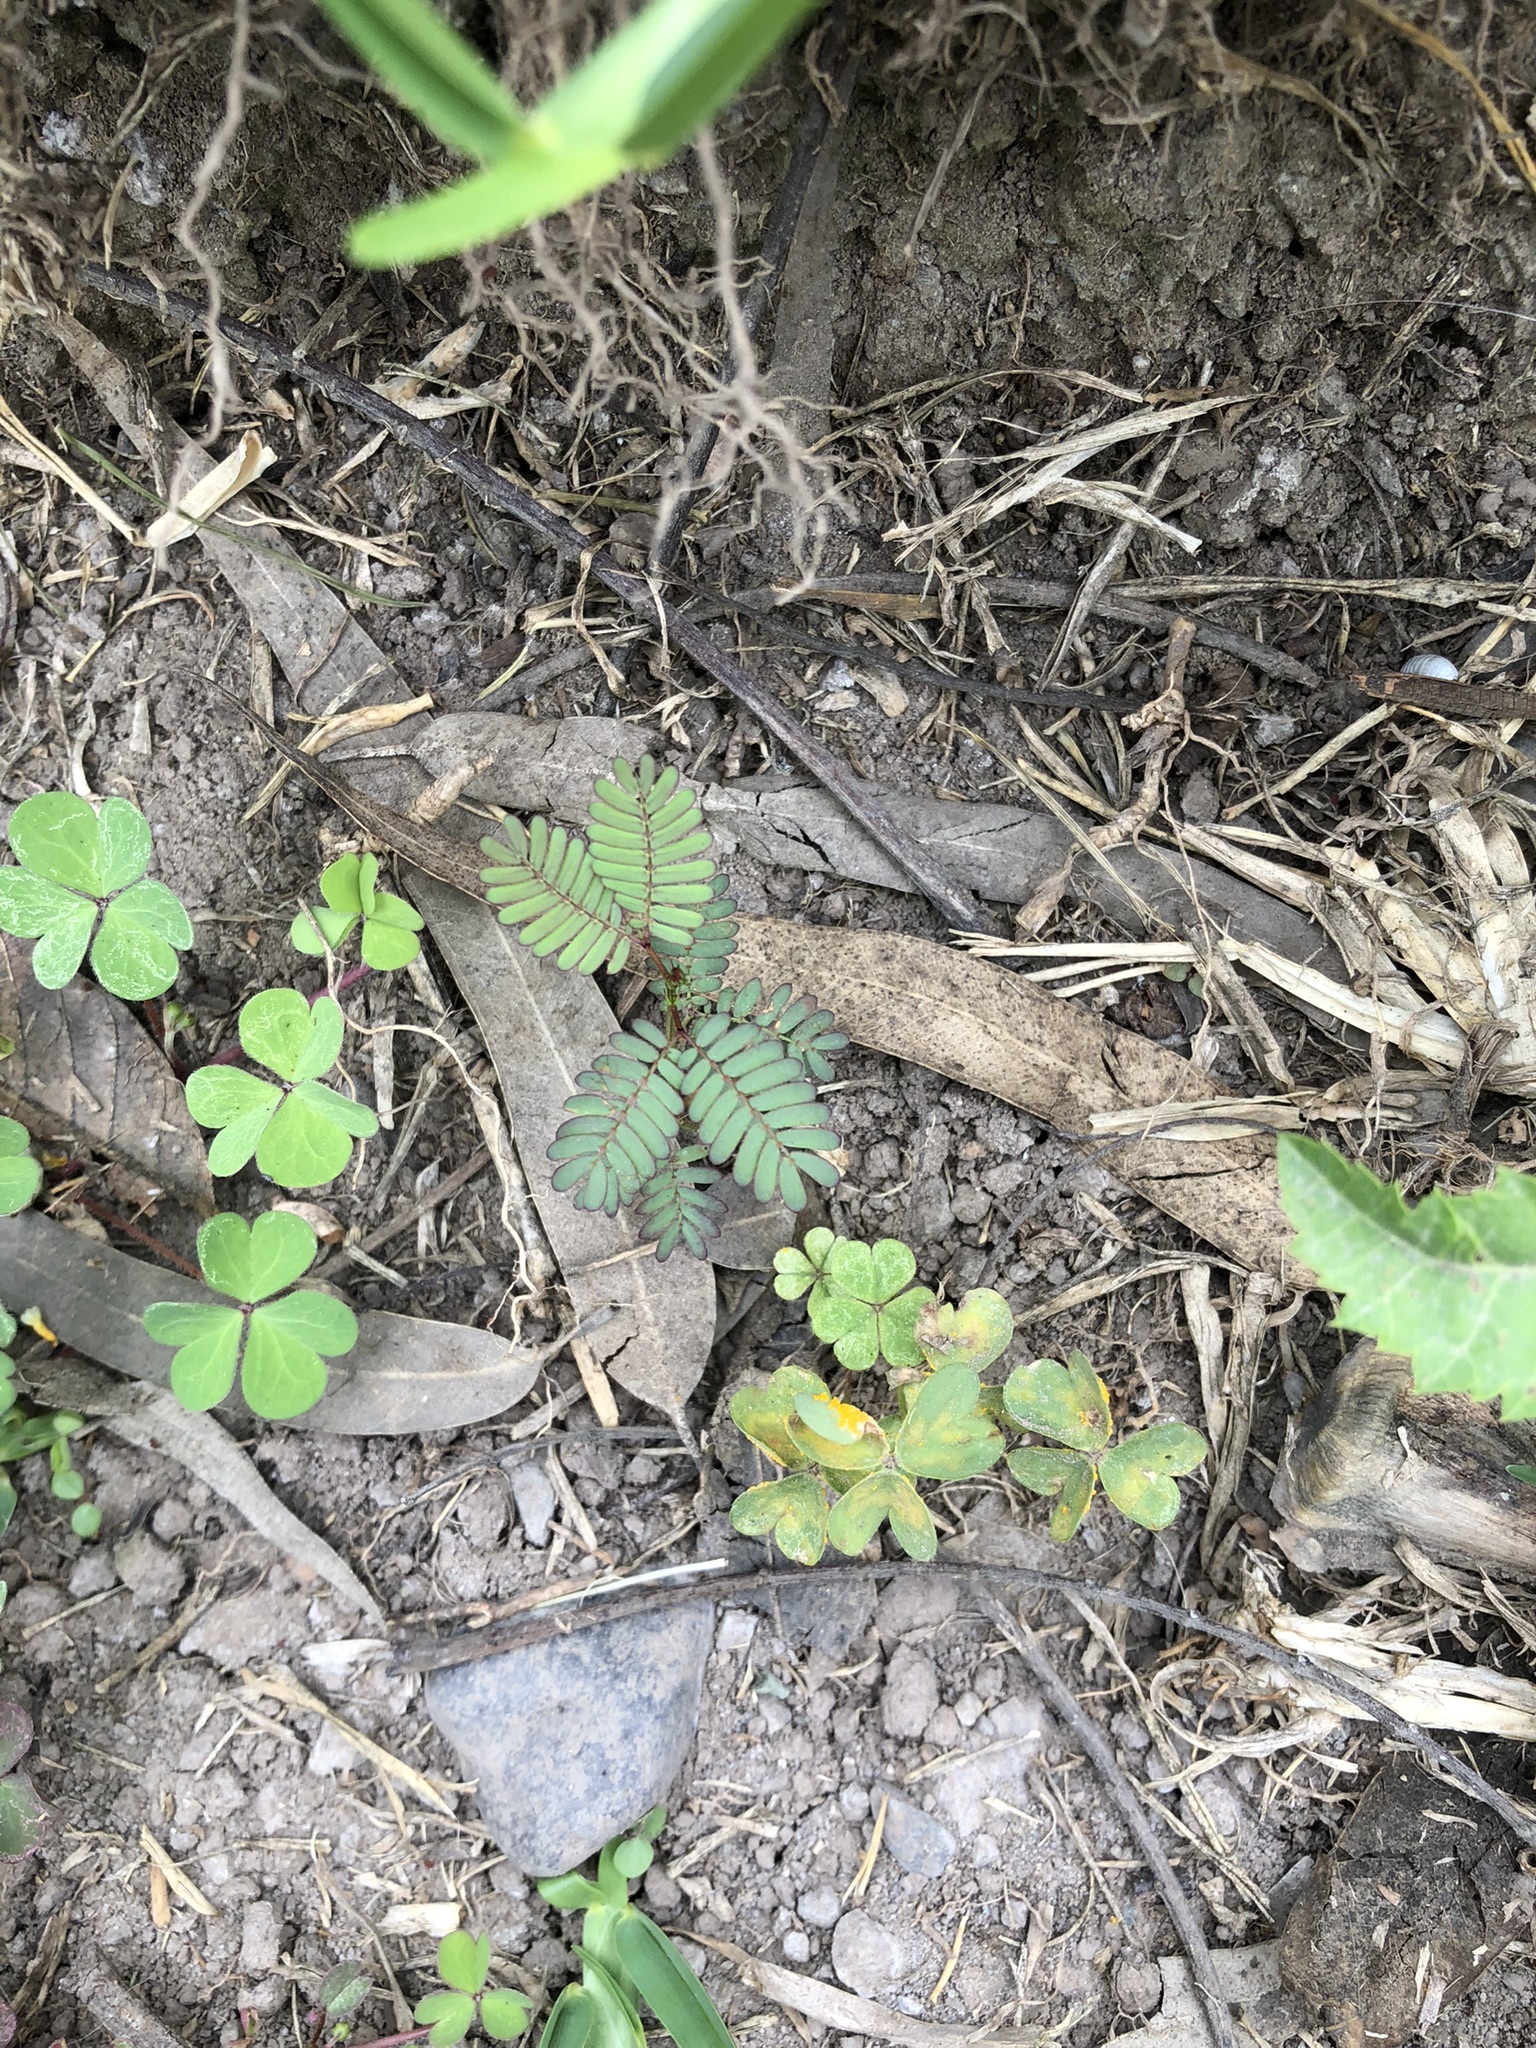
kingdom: Plantae
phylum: Tracheophyta
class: Magnoliopsida
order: Fabales
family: Fabaceae
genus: Desmanthus
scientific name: Desmanthus virgatus
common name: Wild tantan
